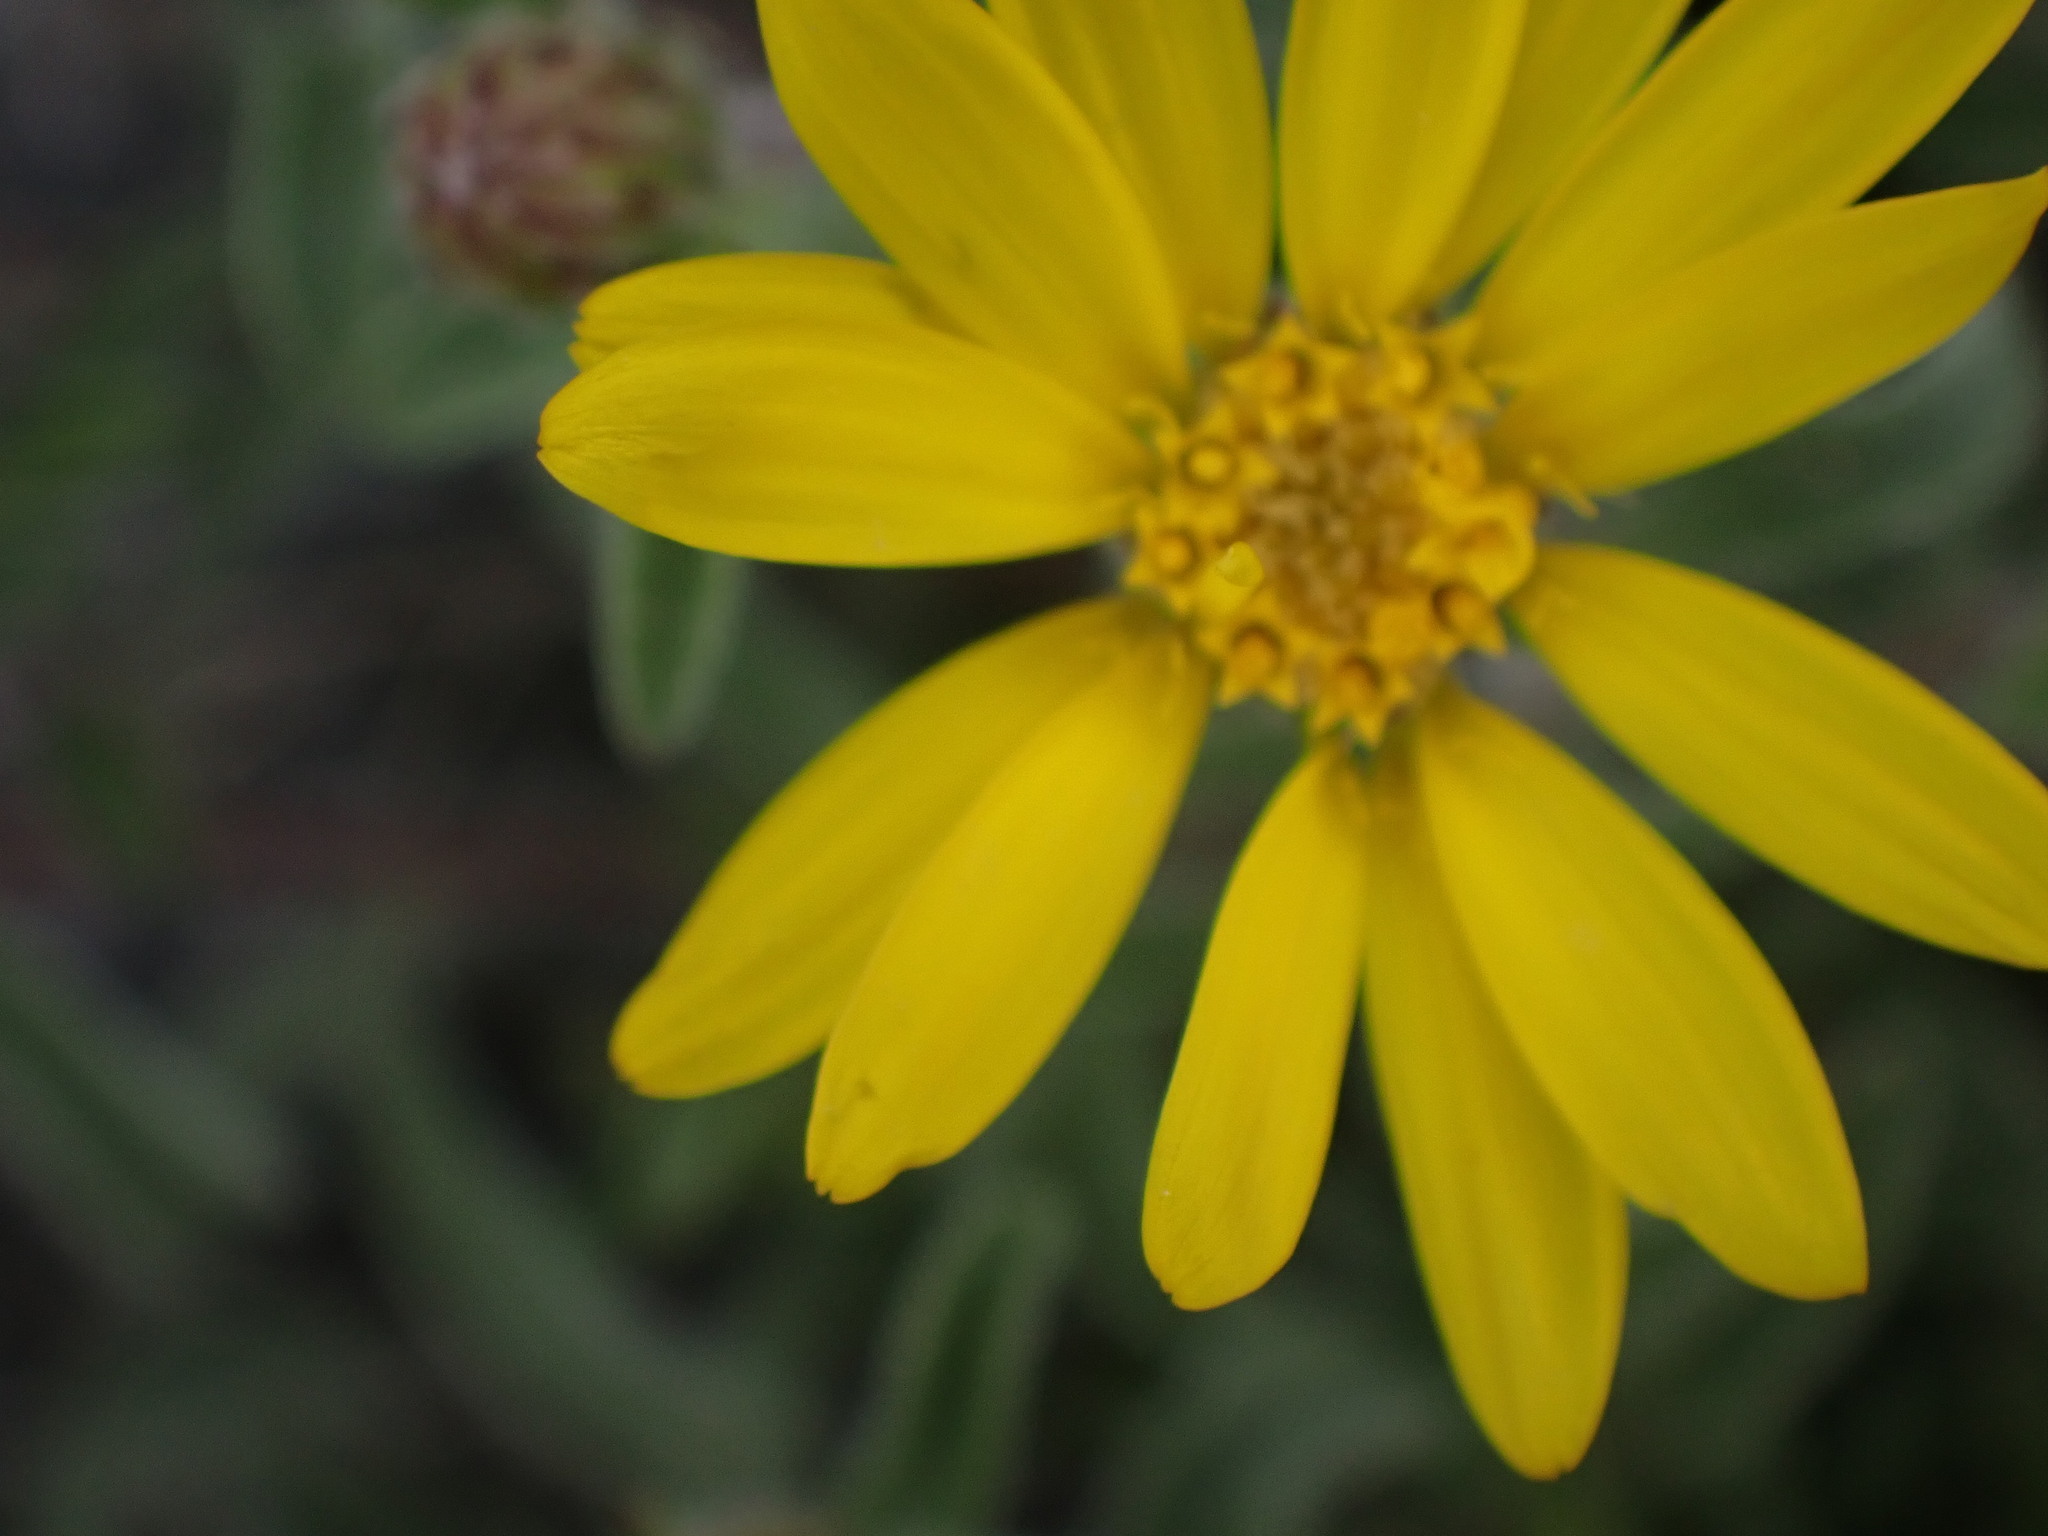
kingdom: Plantae
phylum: Tracheophyta
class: Magnoliopsida
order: Asterales
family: Asteraceae
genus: Heterotheca
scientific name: Heterotheca villosa
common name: Hairy false goldenaster
